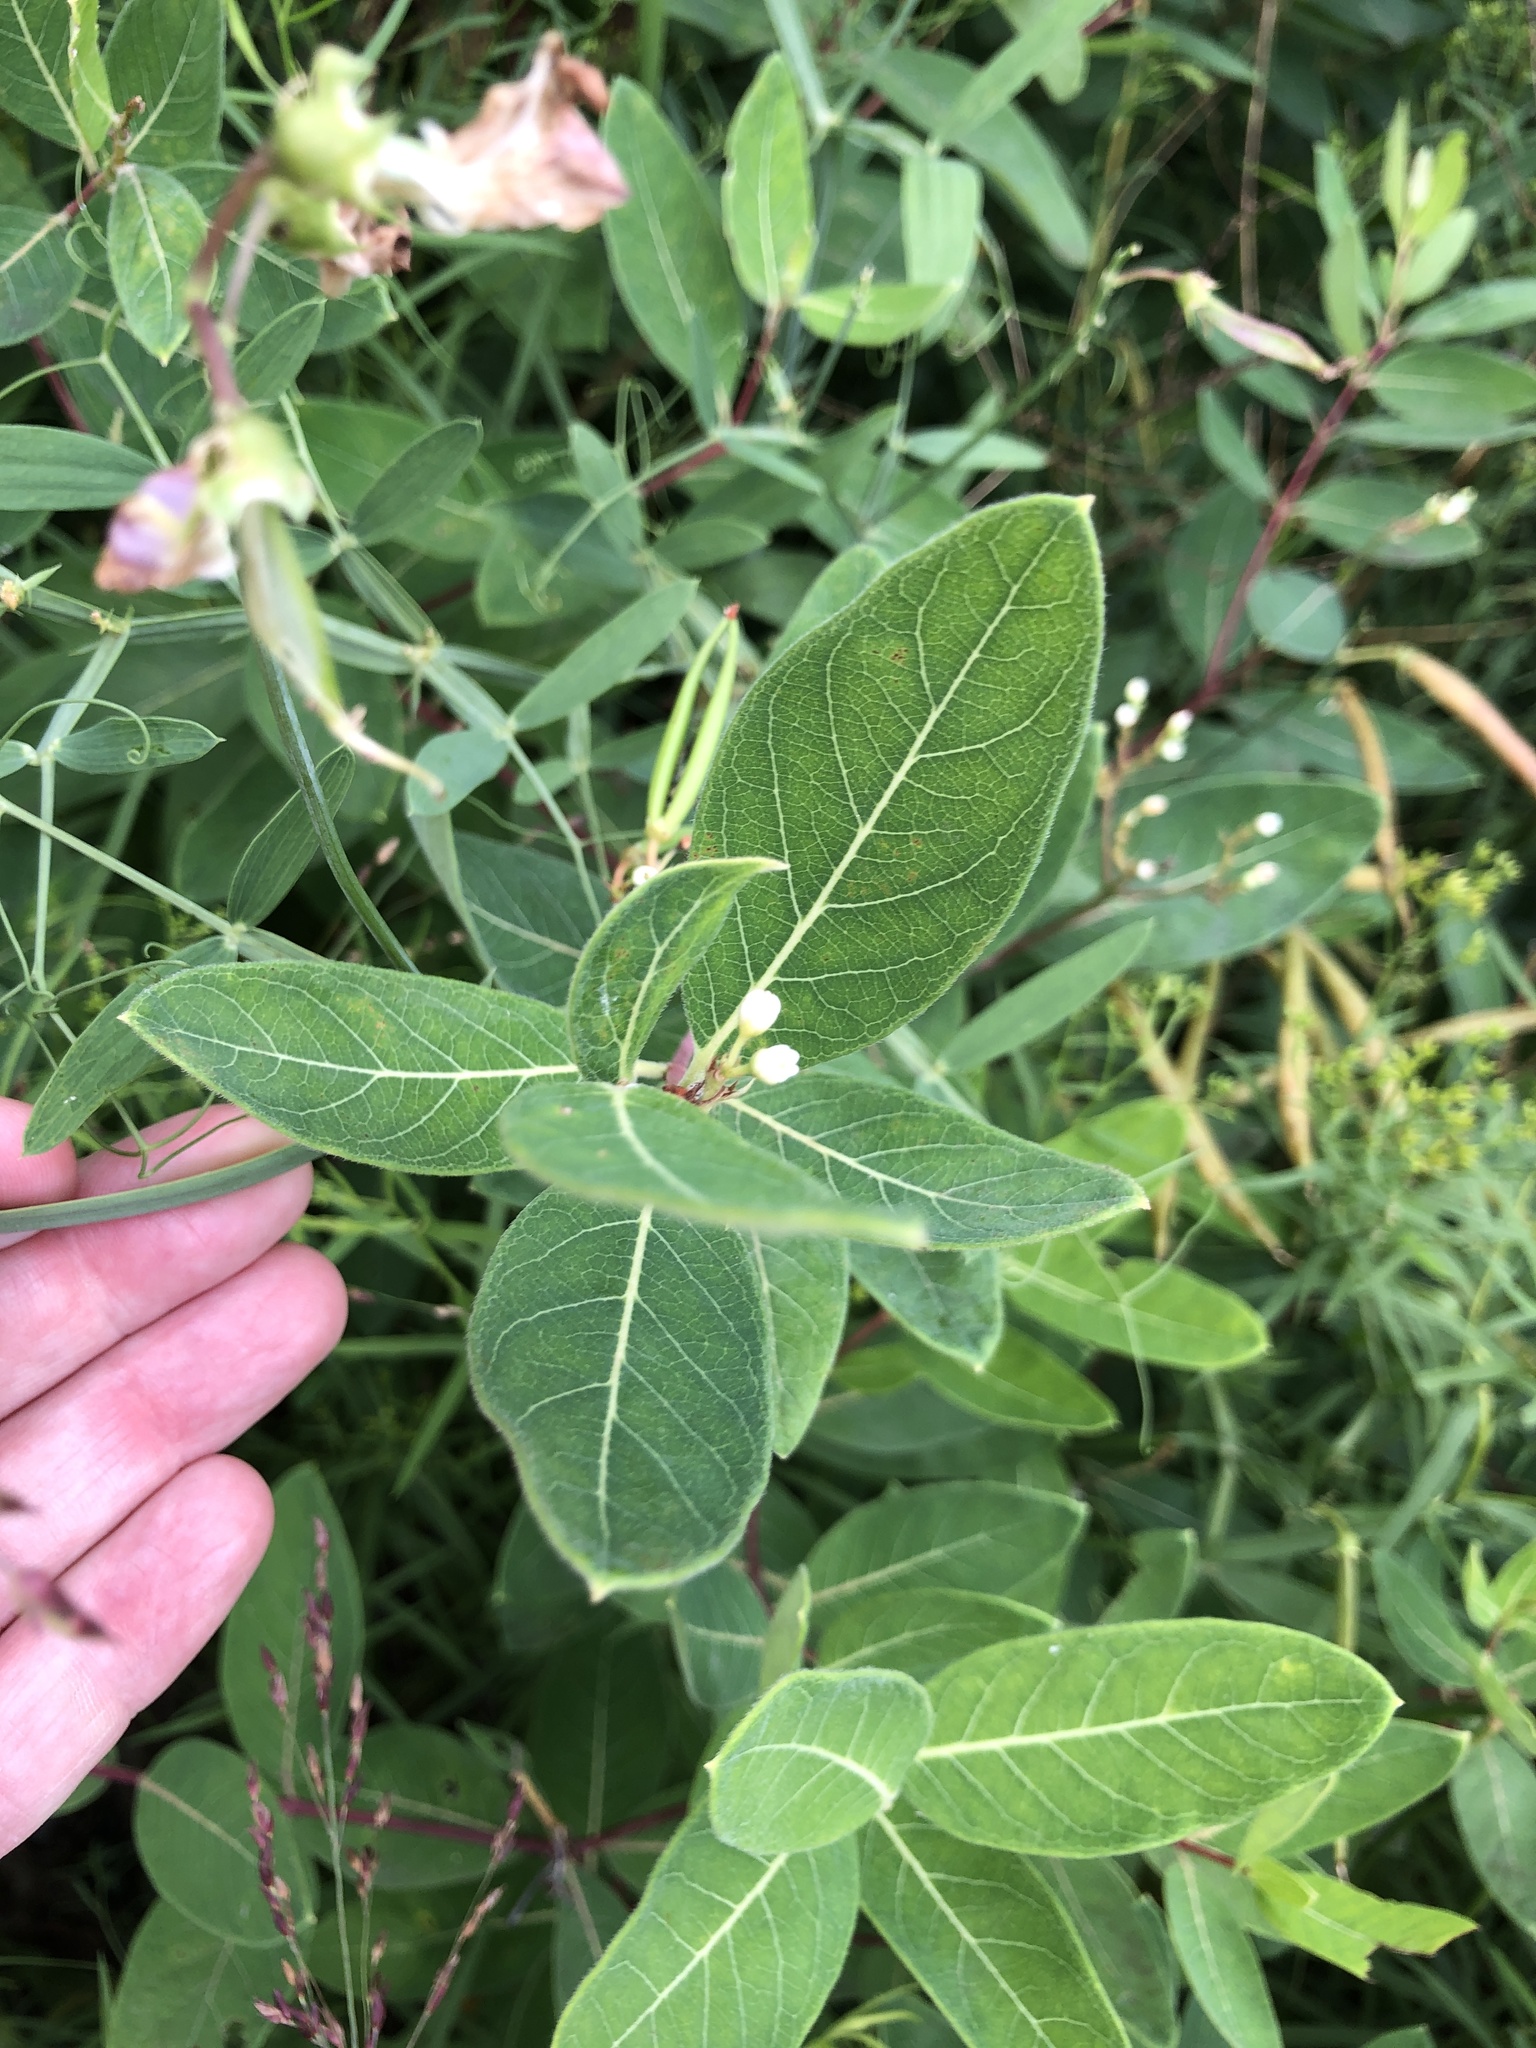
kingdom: Plantae
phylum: Tracheophyta
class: Magnoliopsida
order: Fabales
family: Fabaceae
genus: Lathyrus
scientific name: Lathyrus latifolius
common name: Perennial pea
